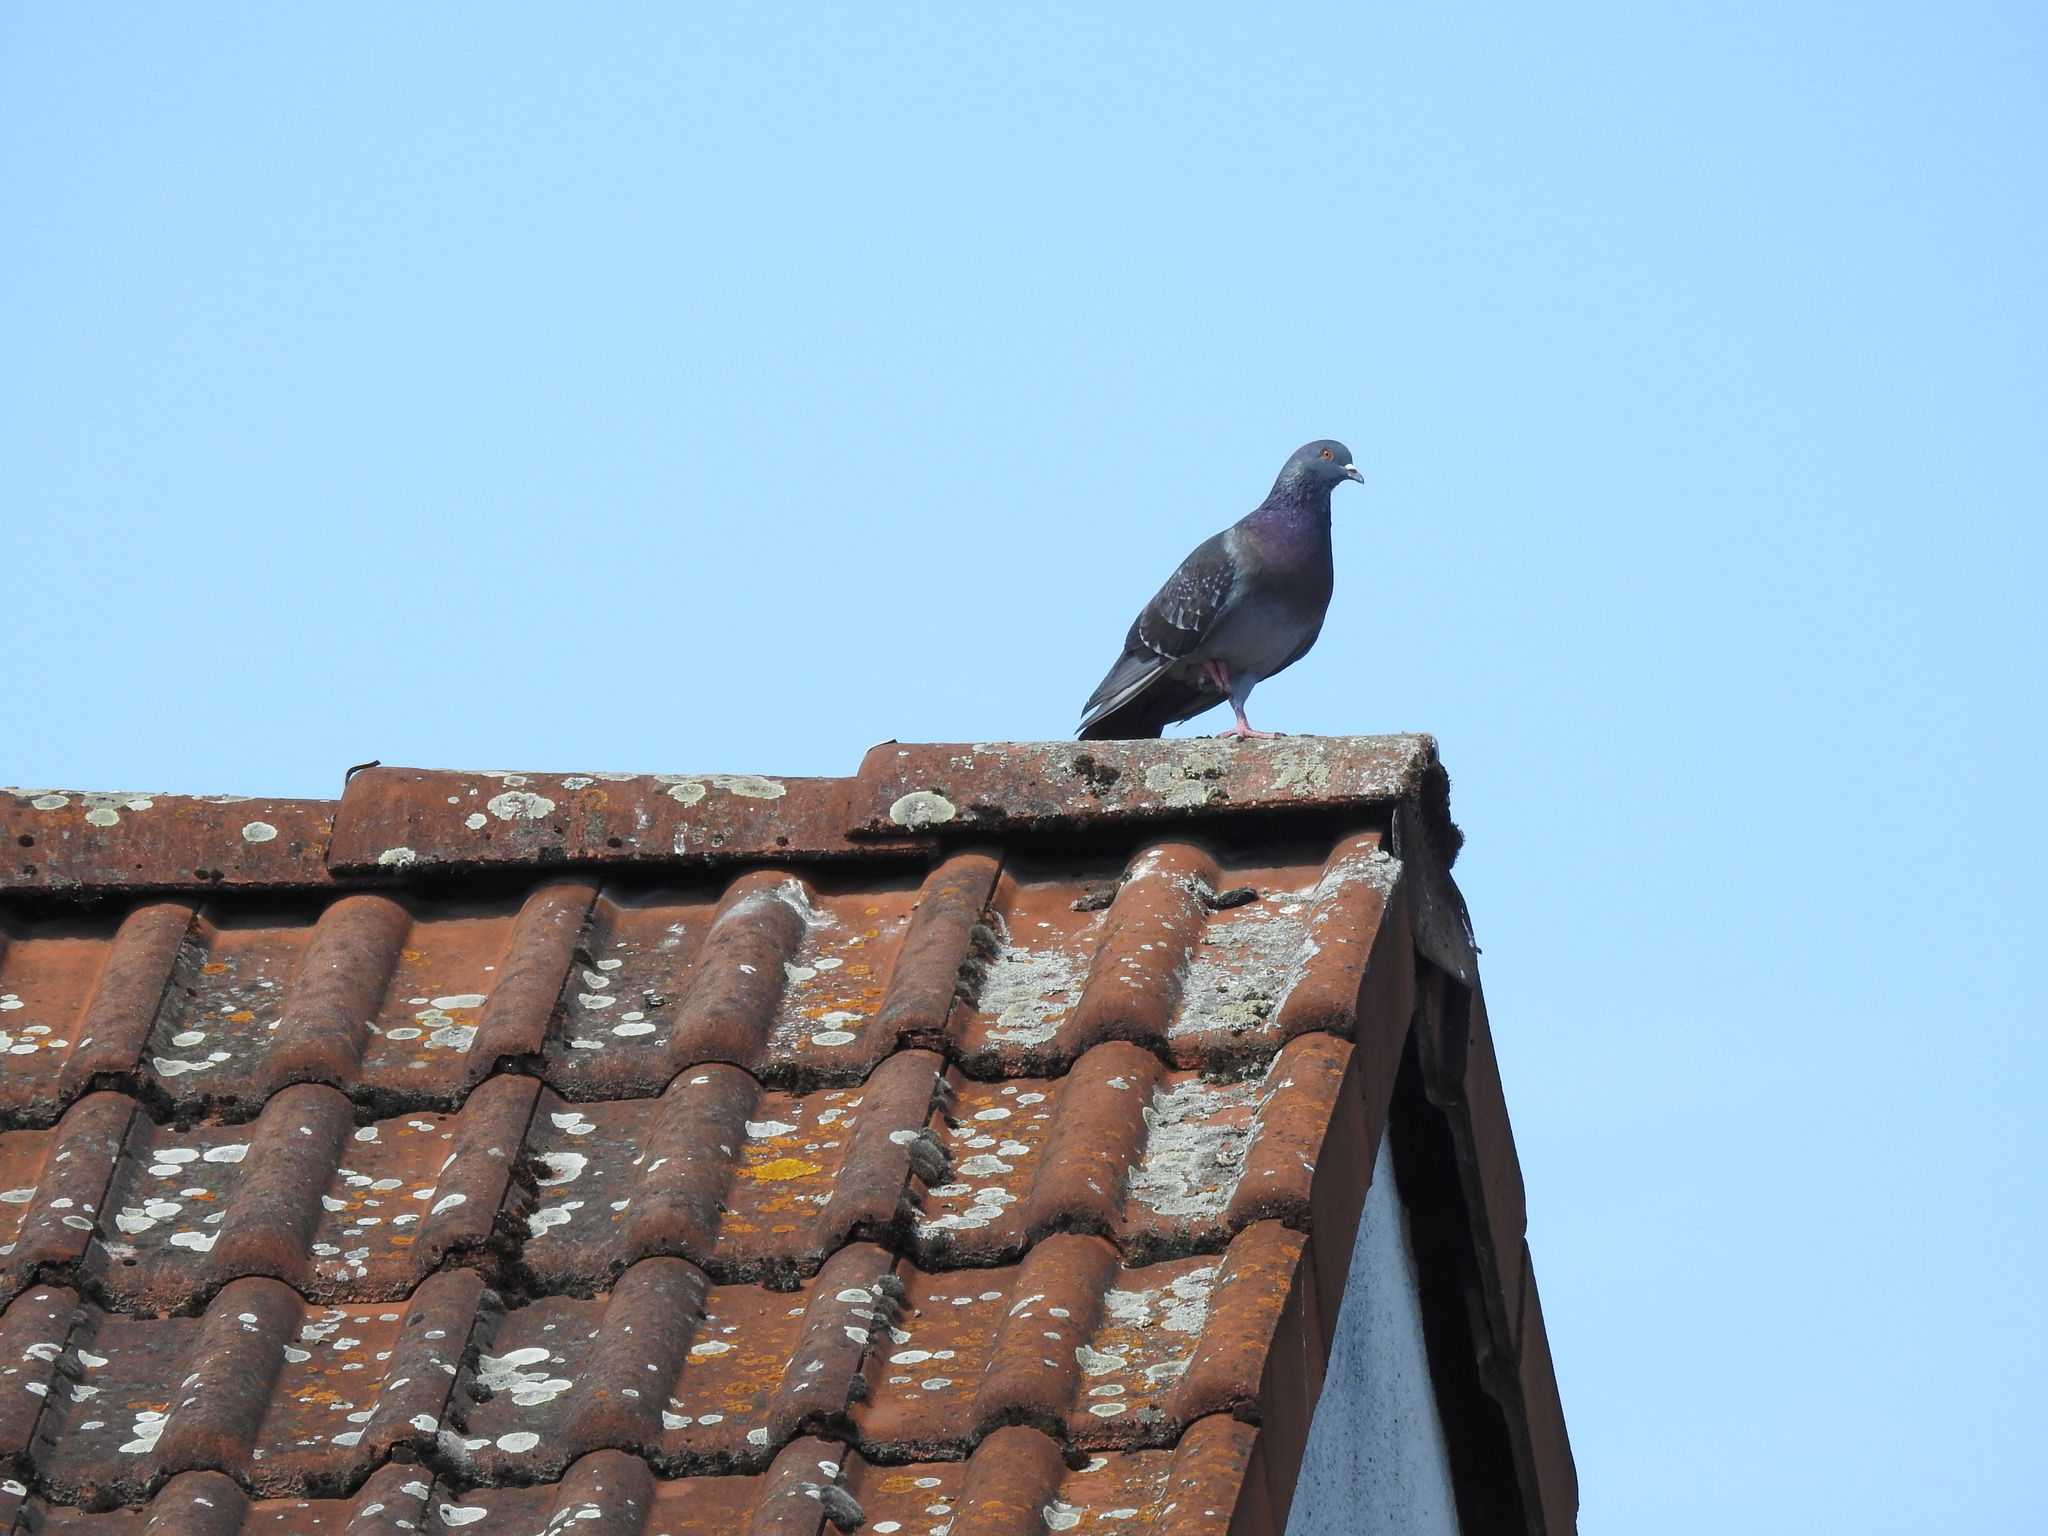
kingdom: Animalia
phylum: Chordata
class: Aves
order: Columbiformes
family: Columbidae
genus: Columba
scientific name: Columba livia
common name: Rock pigeon
